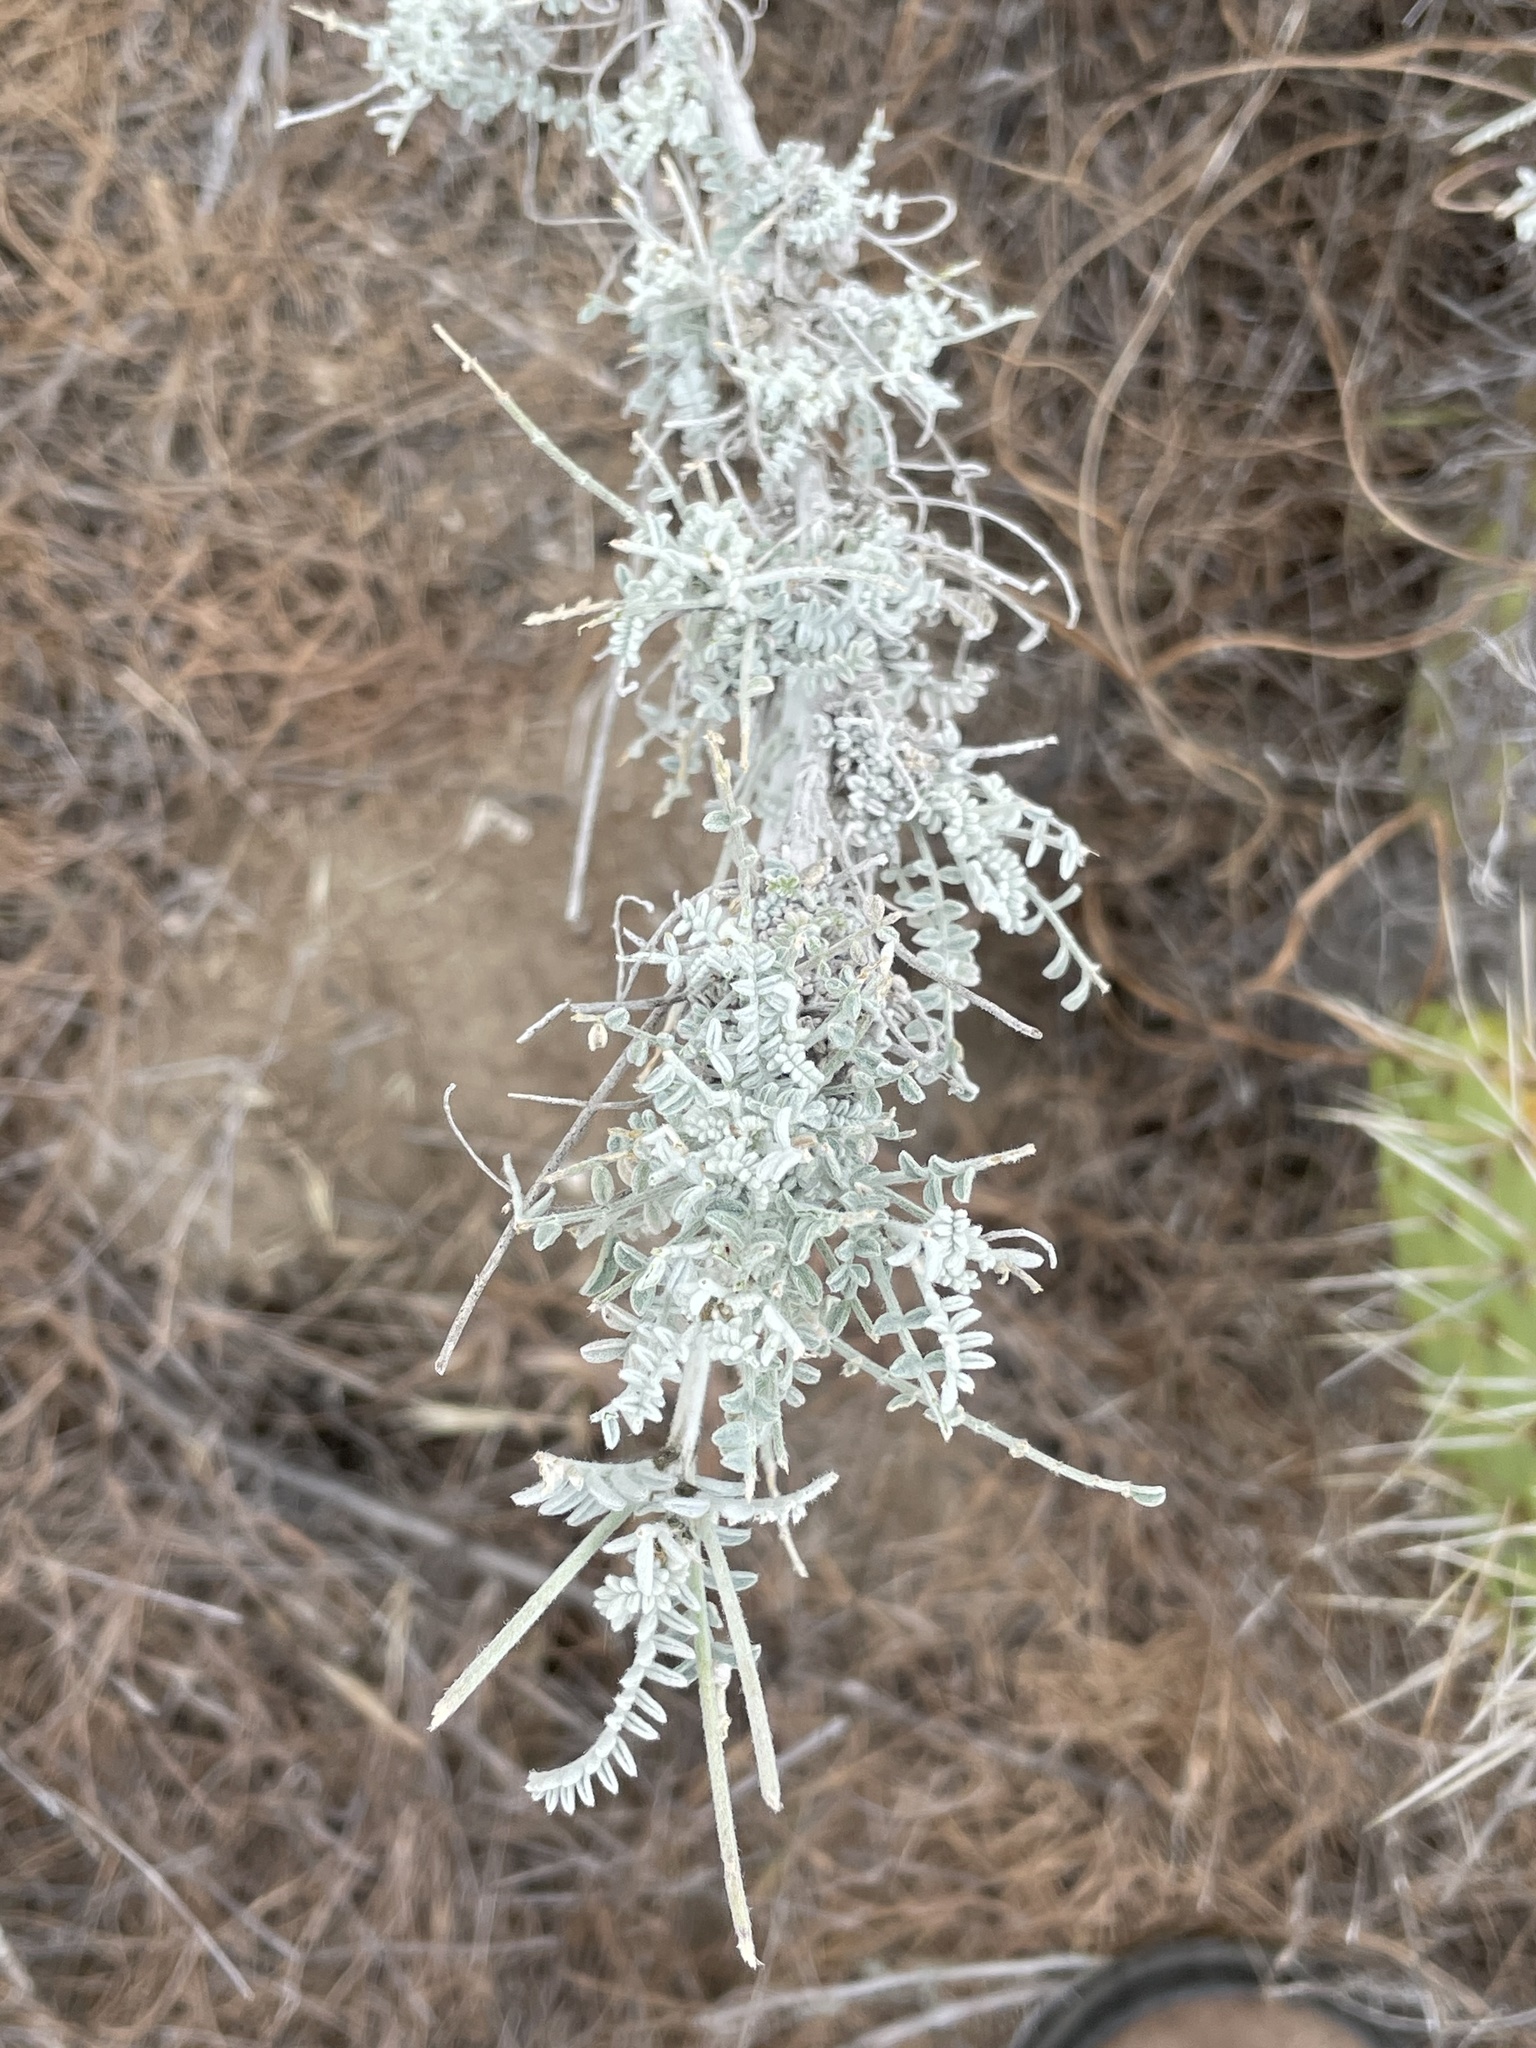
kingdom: Plantae
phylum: Tracheophyta
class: Magnoliopsida
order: Fabales
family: Fabaceae
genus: Astragalus
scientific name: Astragalus nevinii
